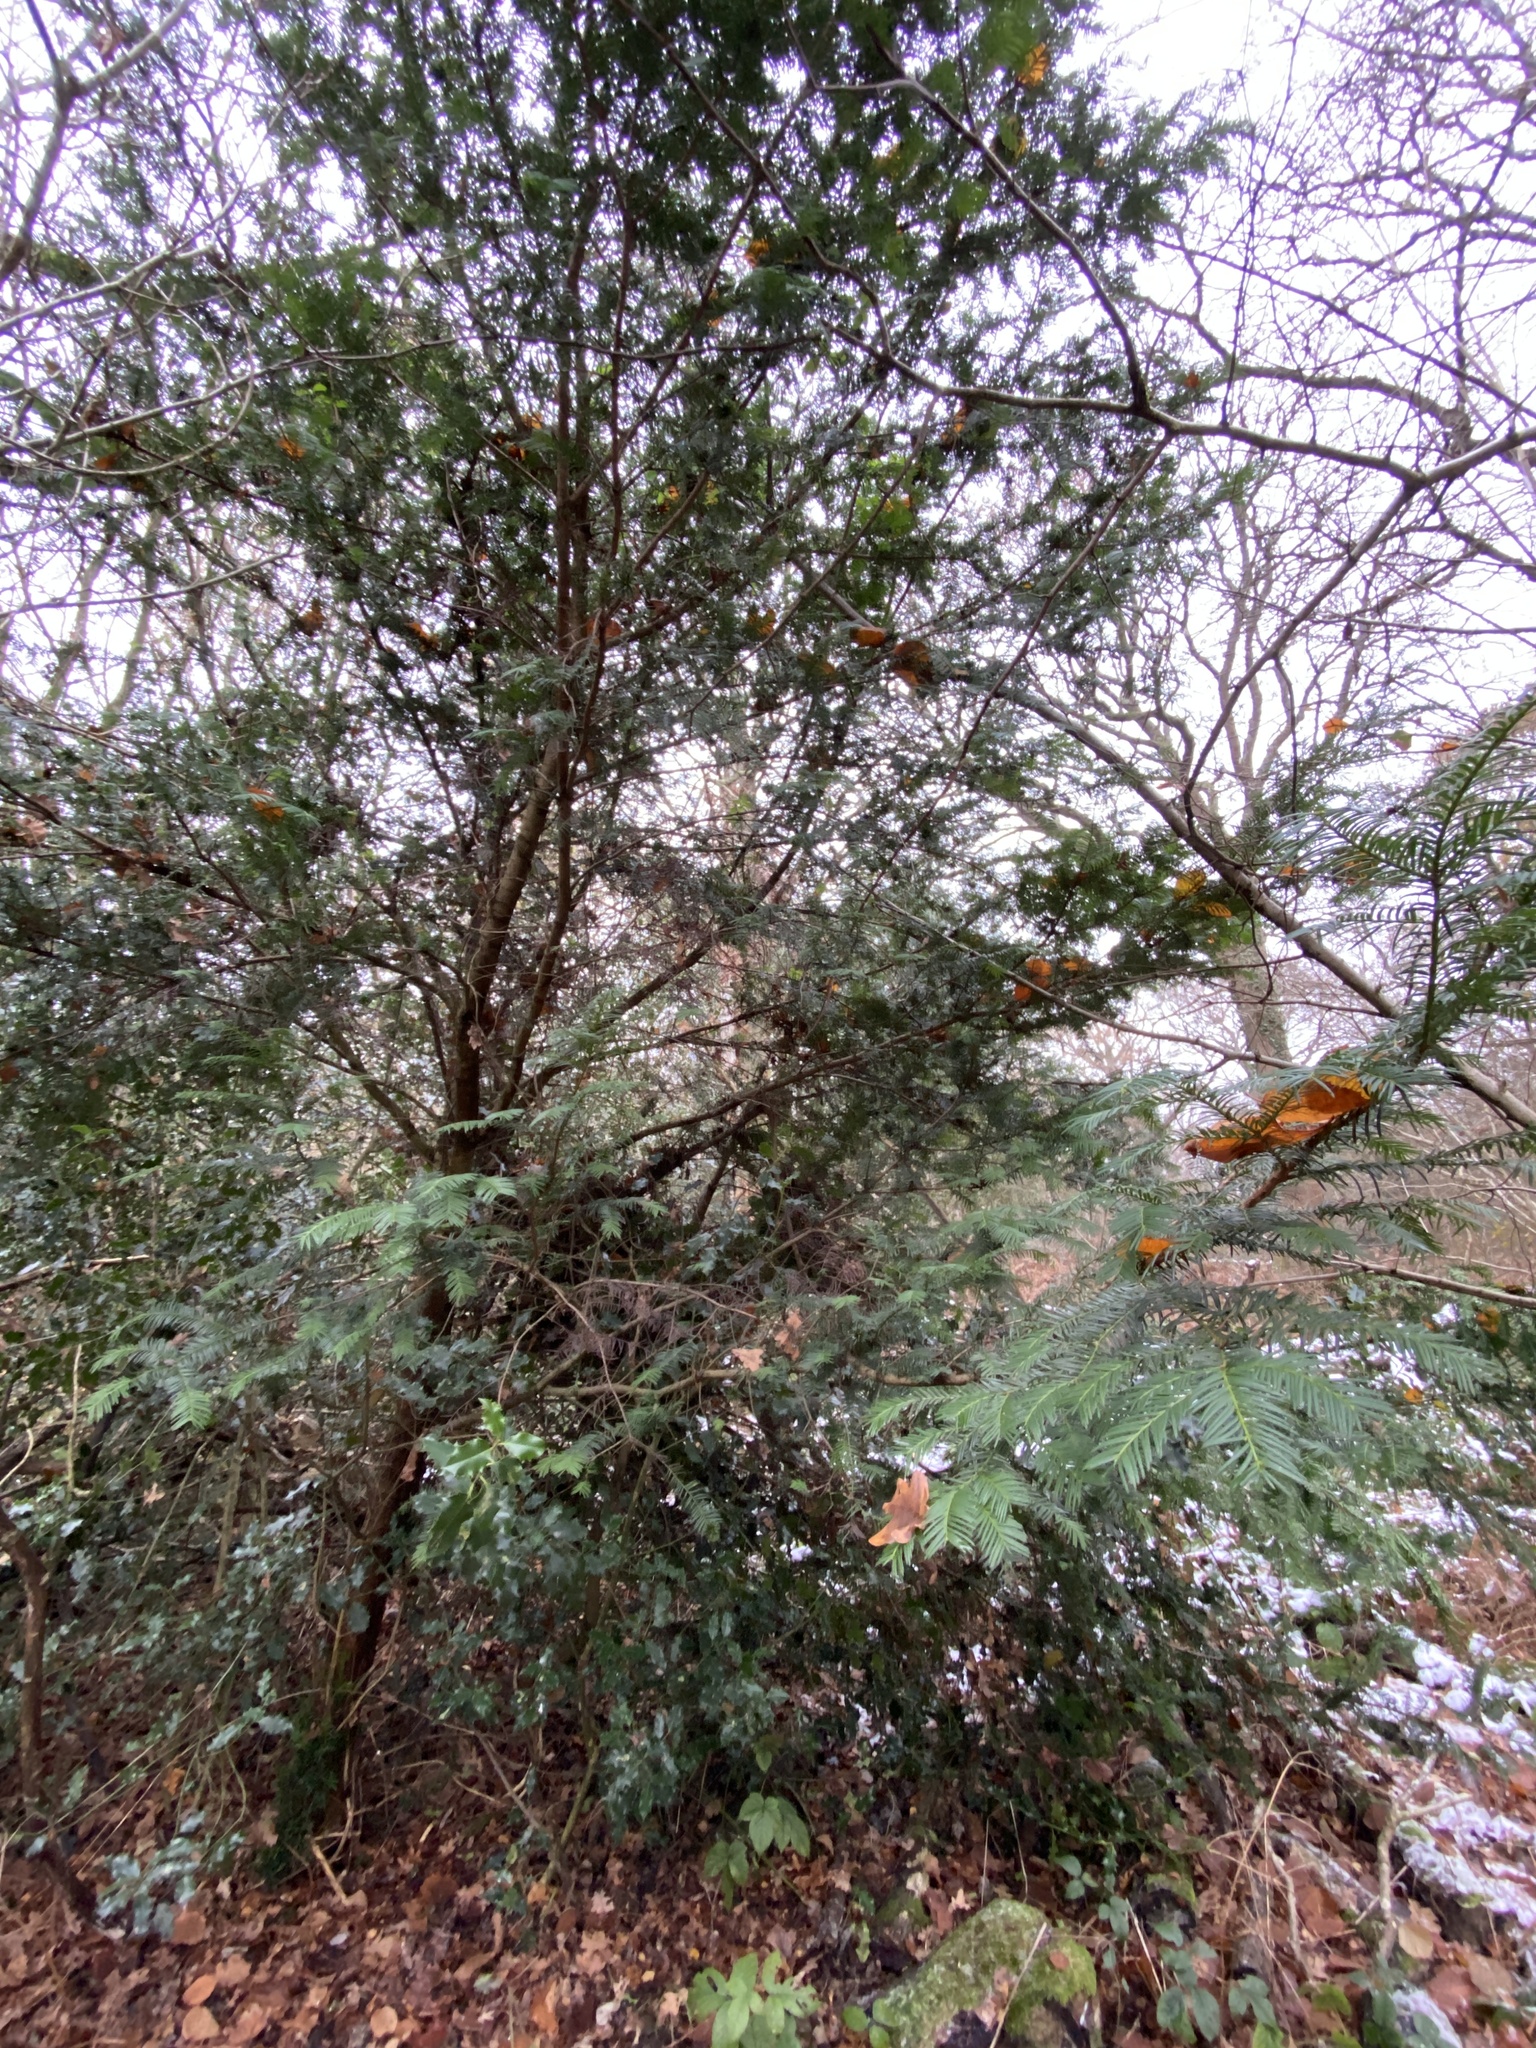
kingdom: Plantae
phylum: Tracheophyta
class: Pinopsida
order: Pinales
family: Taxaceae
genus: Taxus
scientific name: Taxus baccata
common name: Yew
